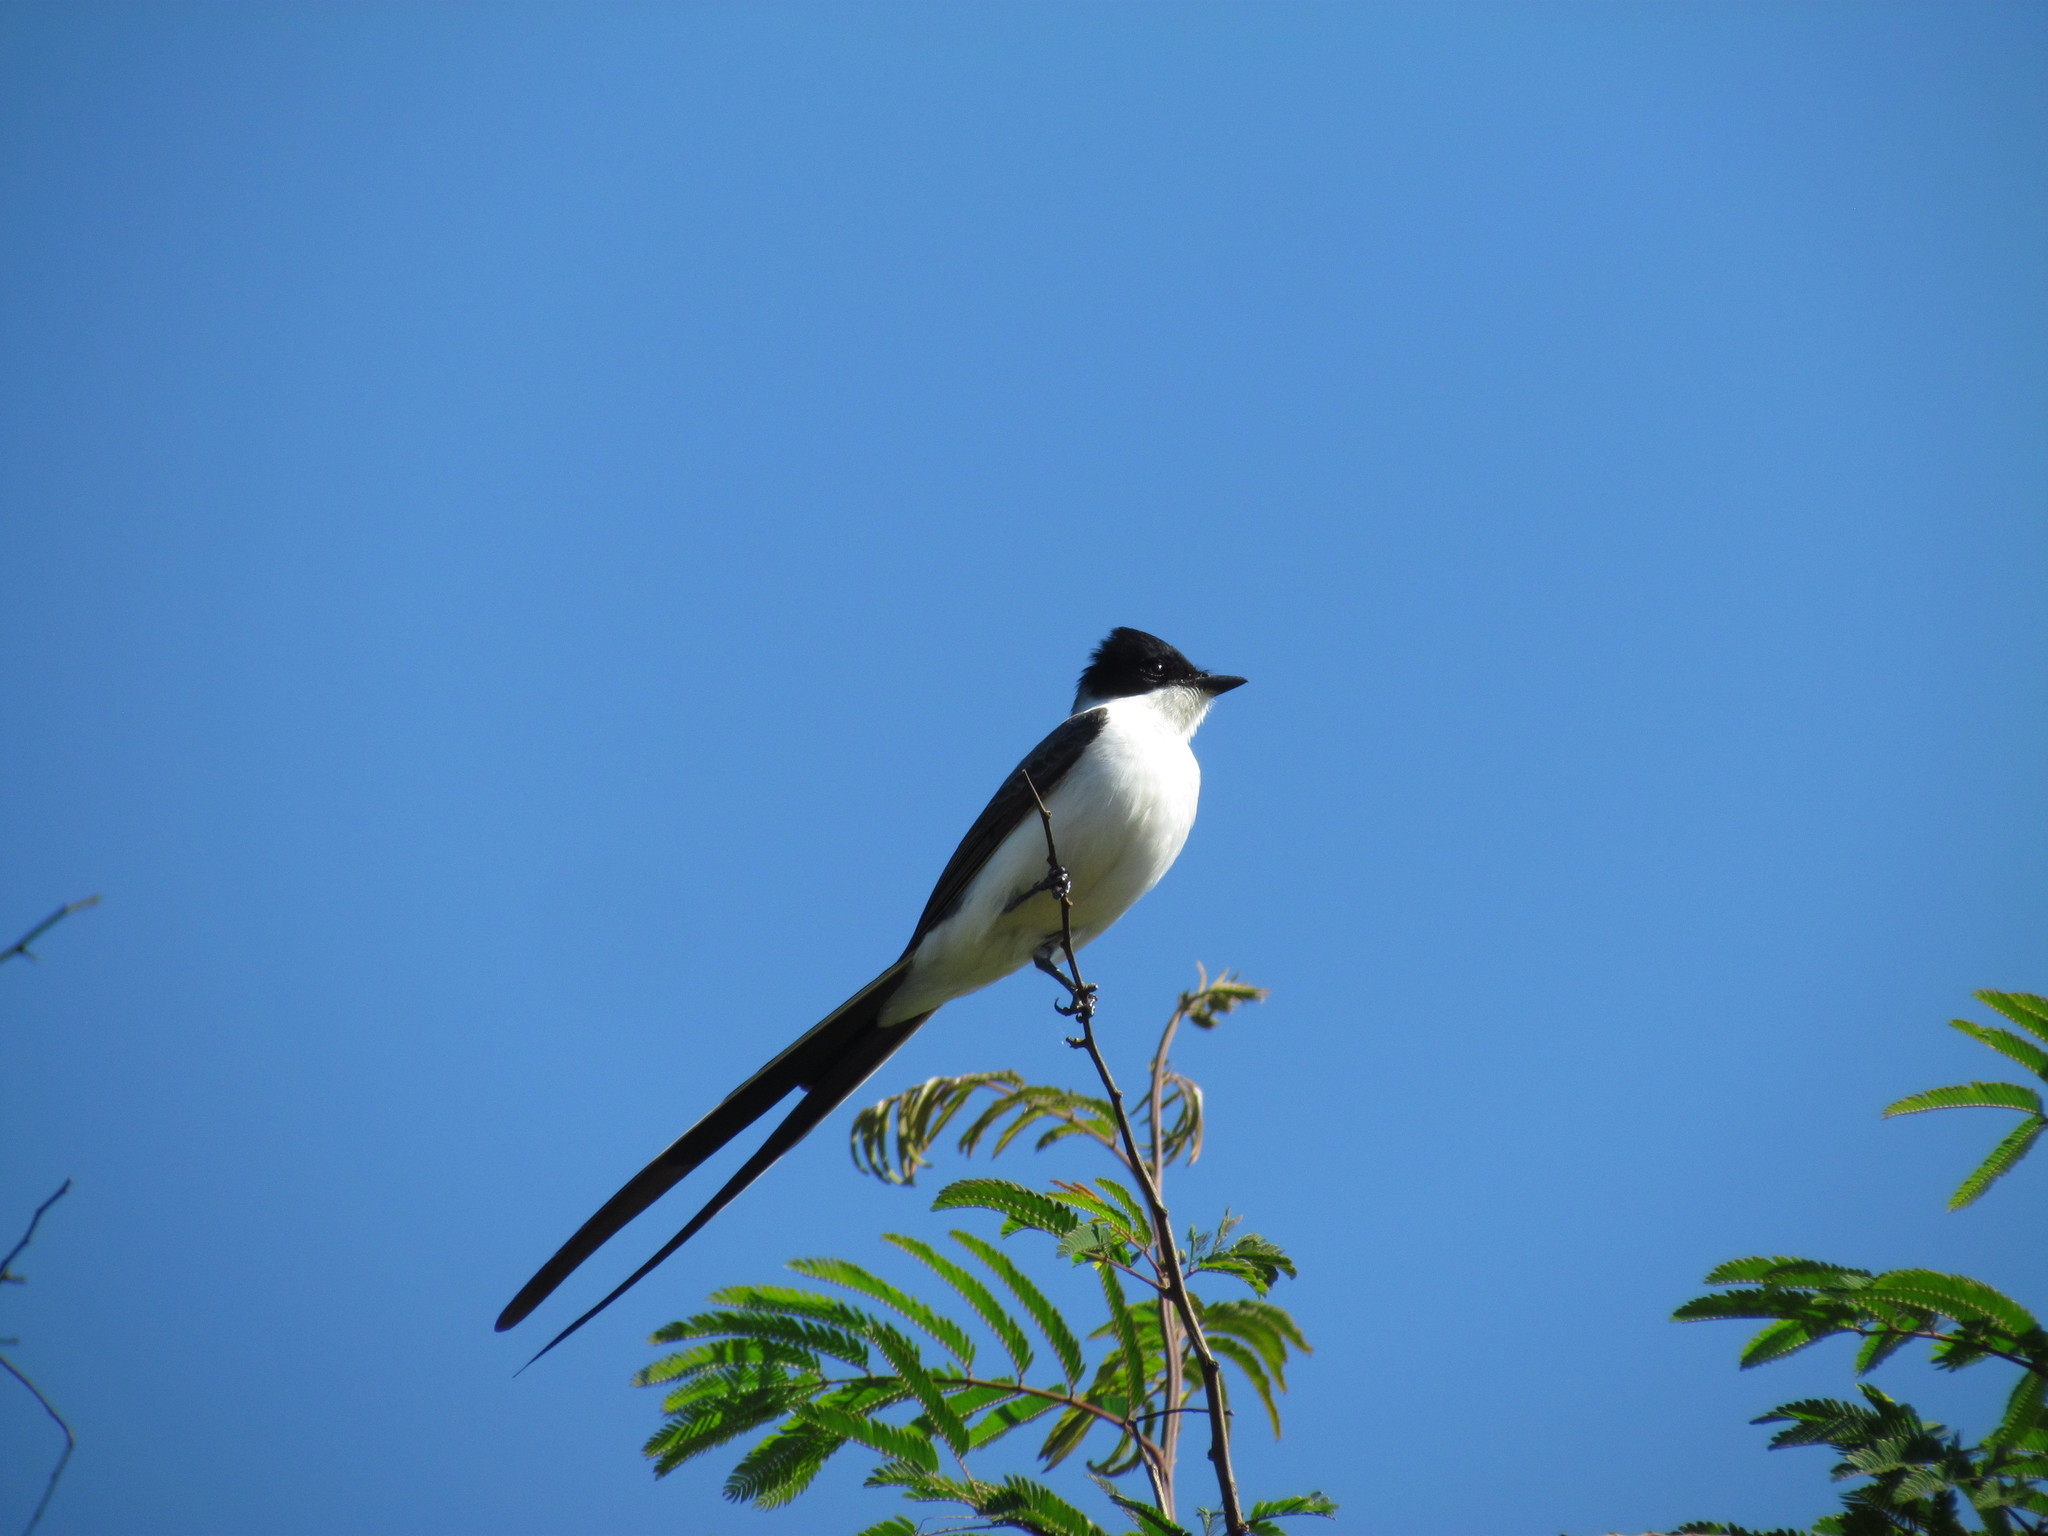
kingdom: Animalia
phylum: Chordata
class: Aves
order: Passeriformes
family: Tyrannidae
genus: Tyrannus
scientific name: Tyrannus savana
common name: Fork-tailed flycatcher
